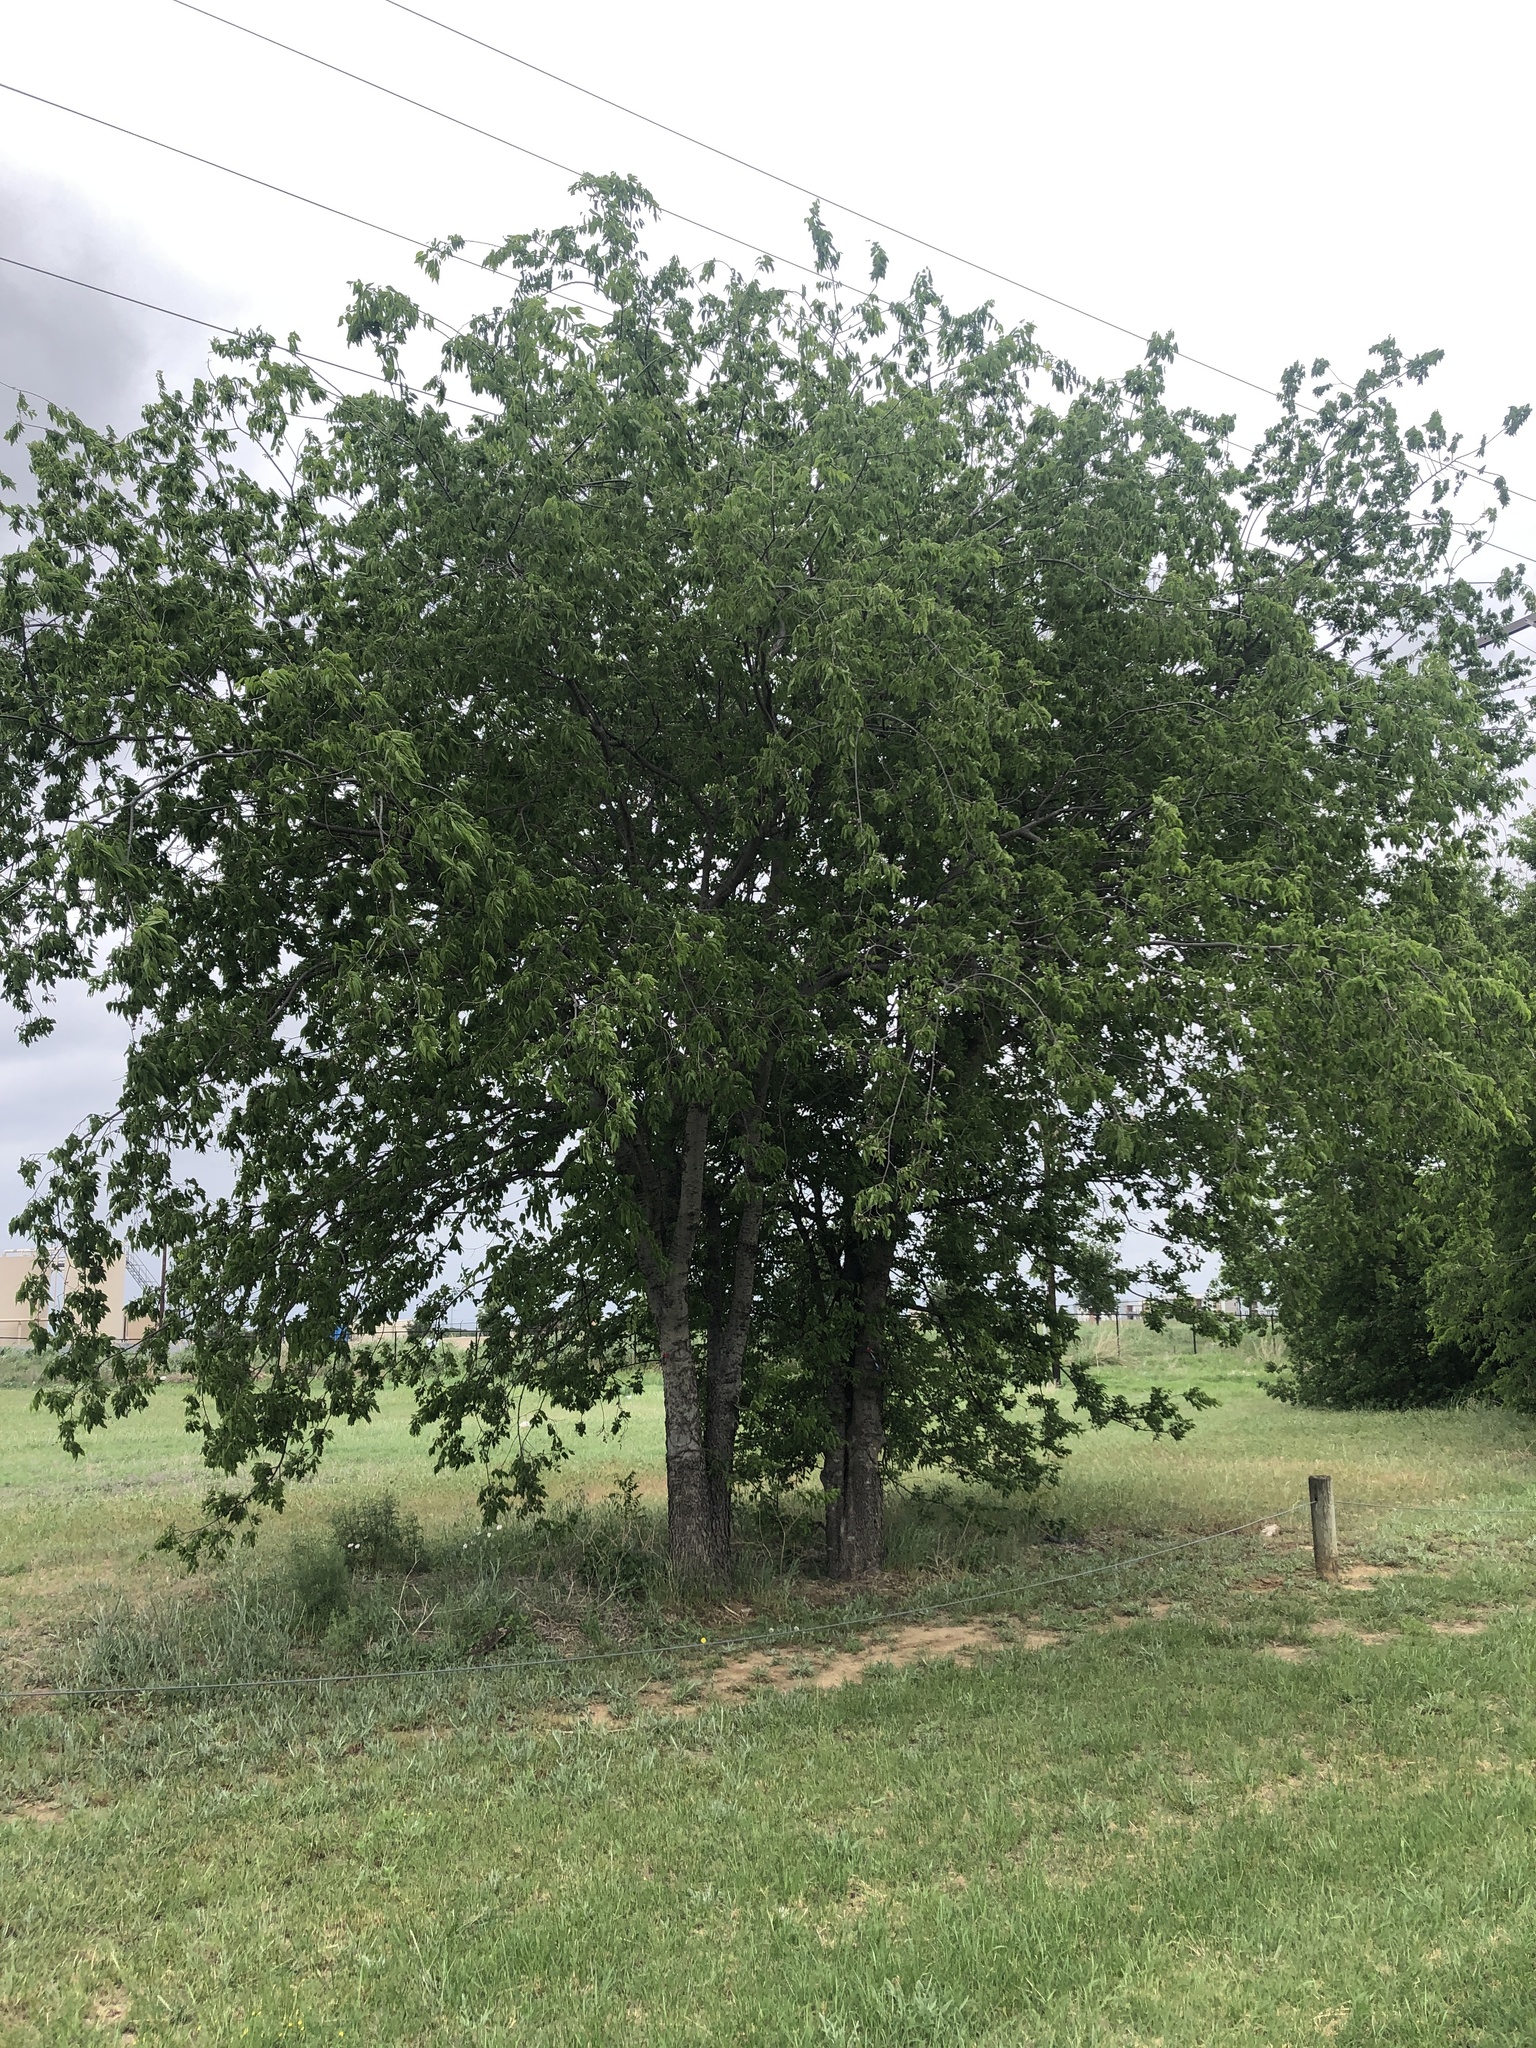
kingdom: Plantae
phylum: Tracheophyta
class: Magnoliopsida
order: Rosales
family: Cannabaceae
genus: Celtis
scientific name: Celtis laevigata
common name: Sugarberry
